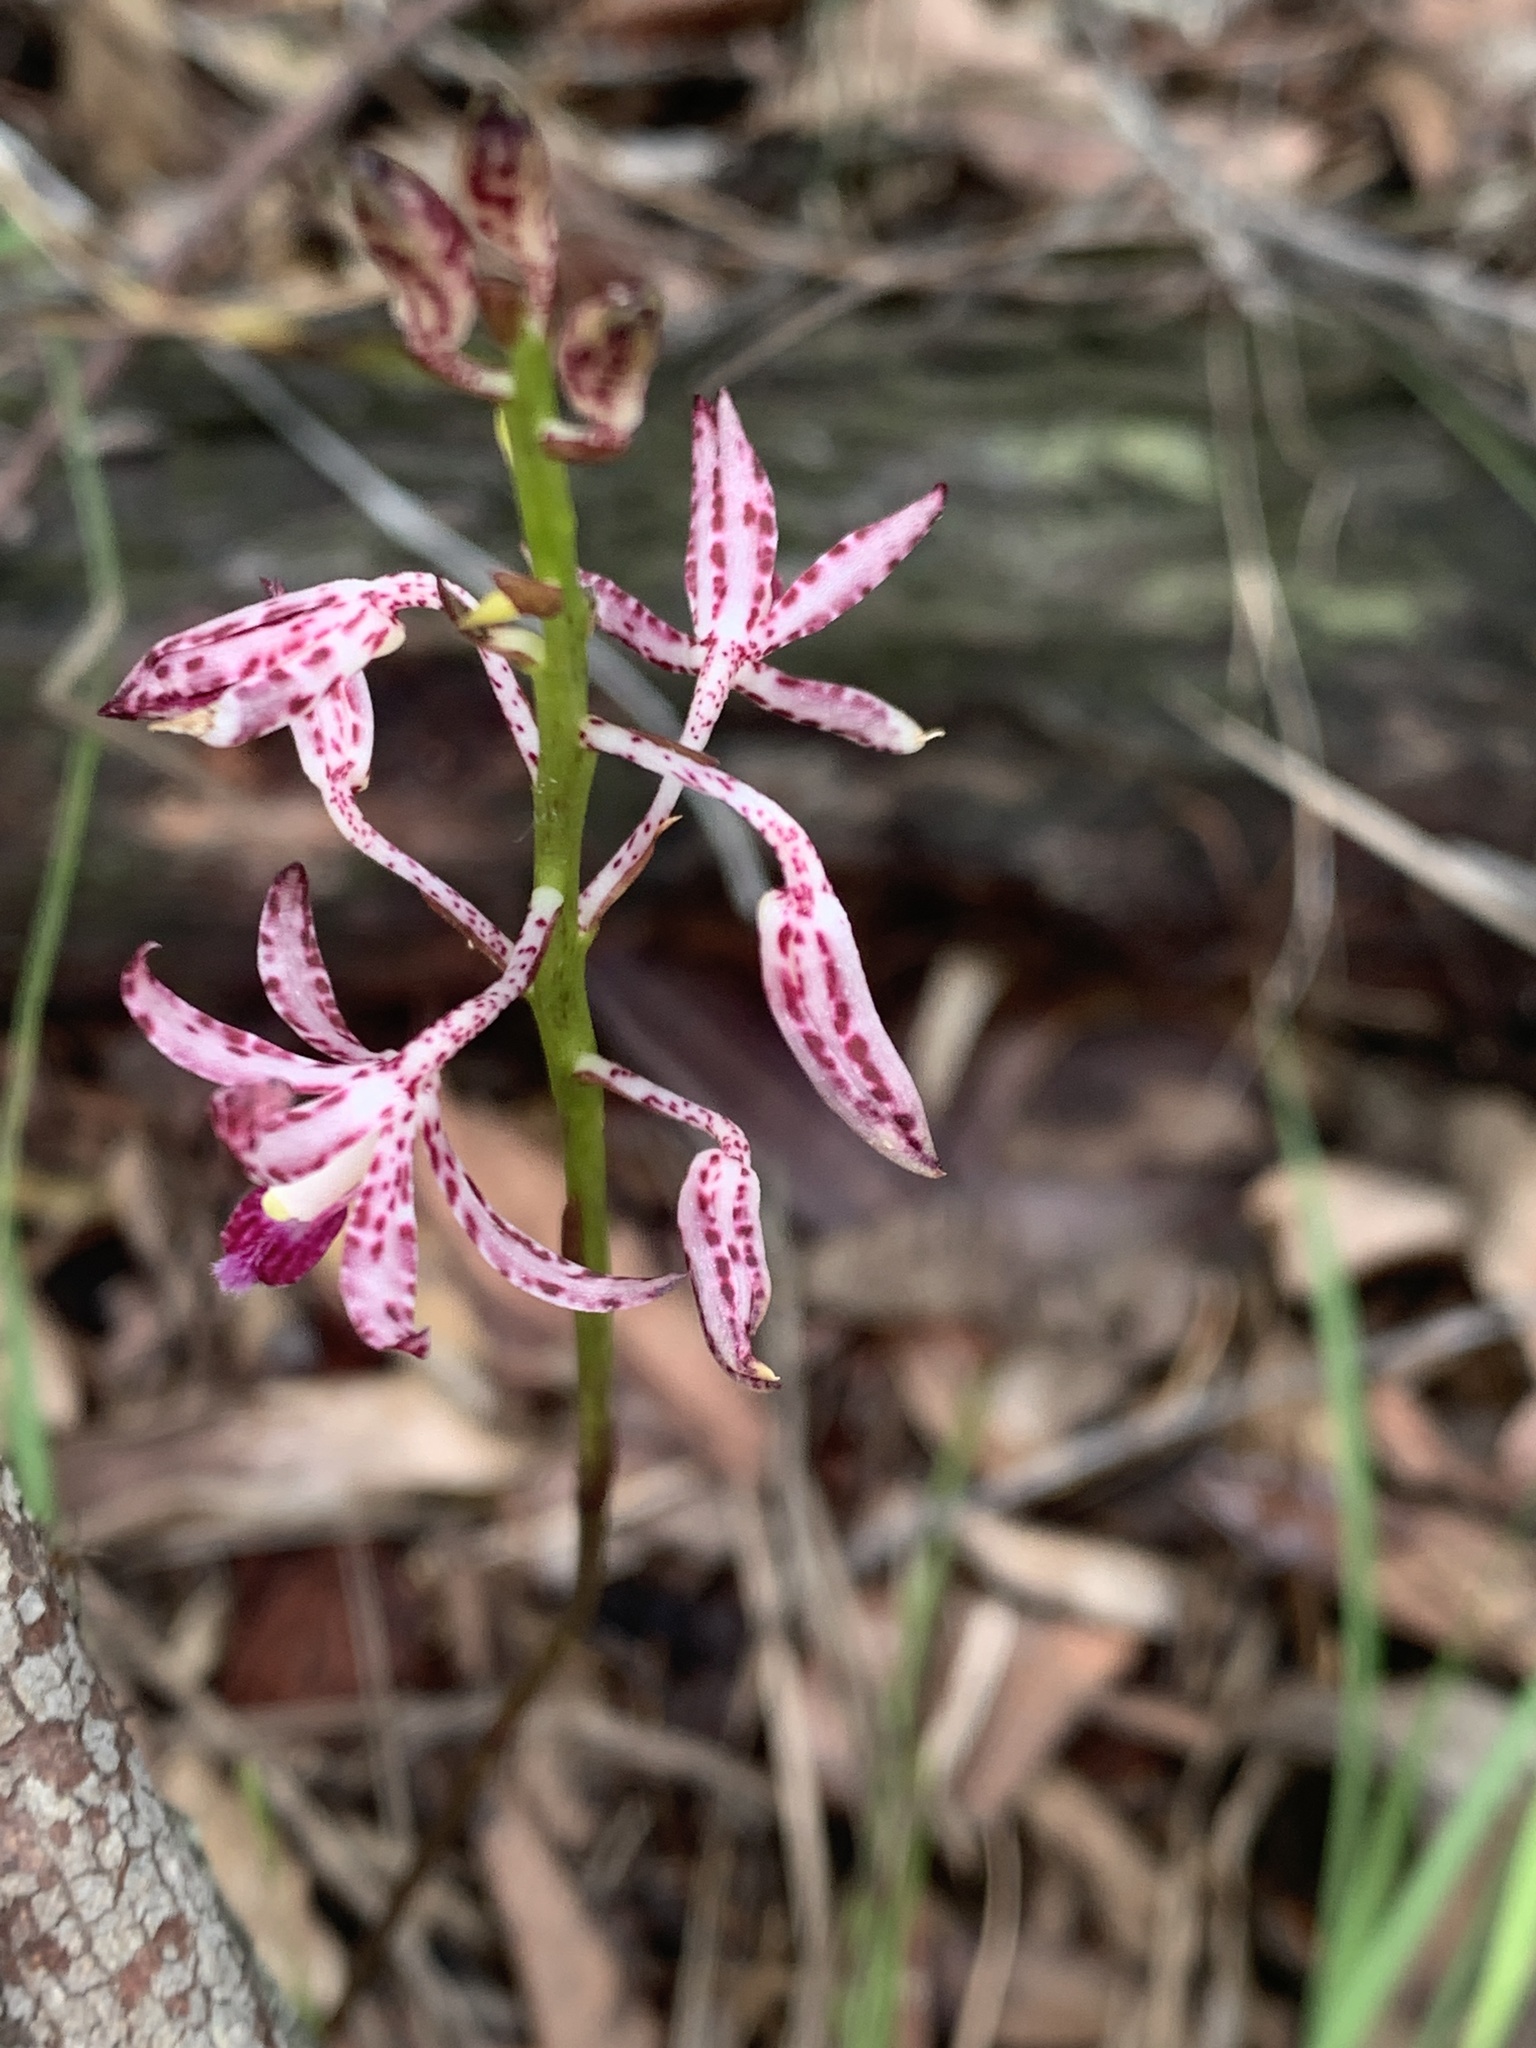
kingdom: Plantae
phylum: Tracheophyta
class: Liliopsida
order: Asparagales
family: Orchidaceae
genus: Dipodium
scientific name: Dipodium variegatum
